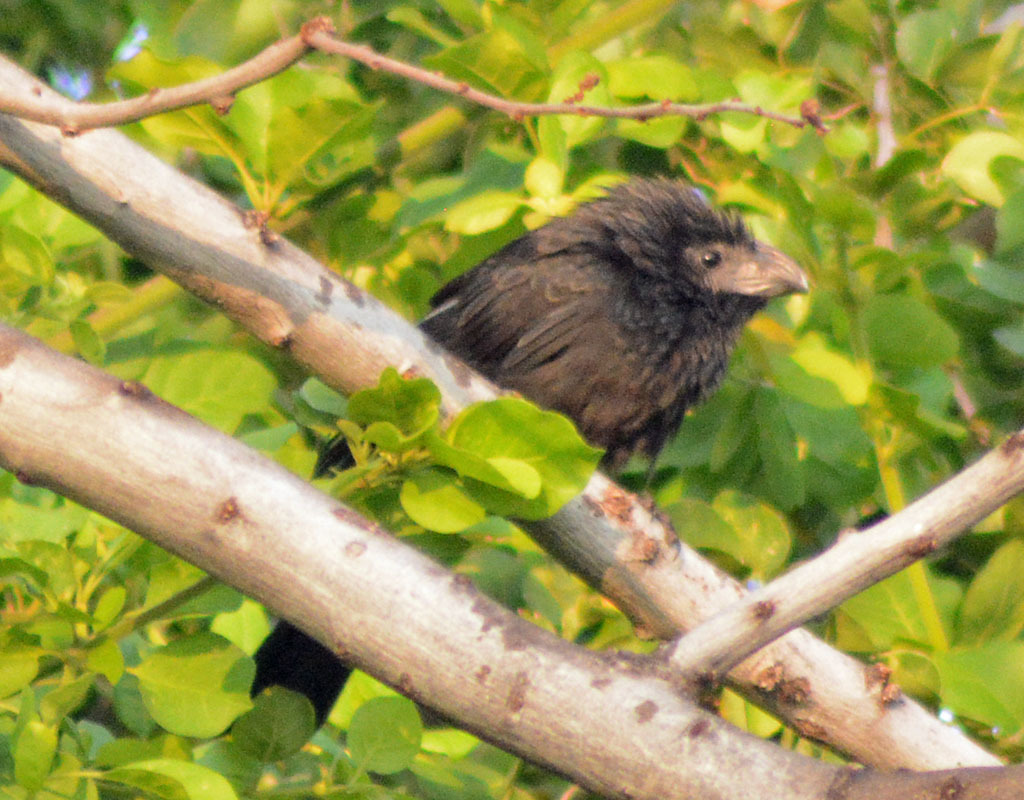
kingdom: Animalia
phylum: Chordata
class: Aves
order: Cuculiformes
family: Cuculidae
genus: Crotophaga
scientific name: Crotophaga sulcirostris
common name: Groove-billed ani
